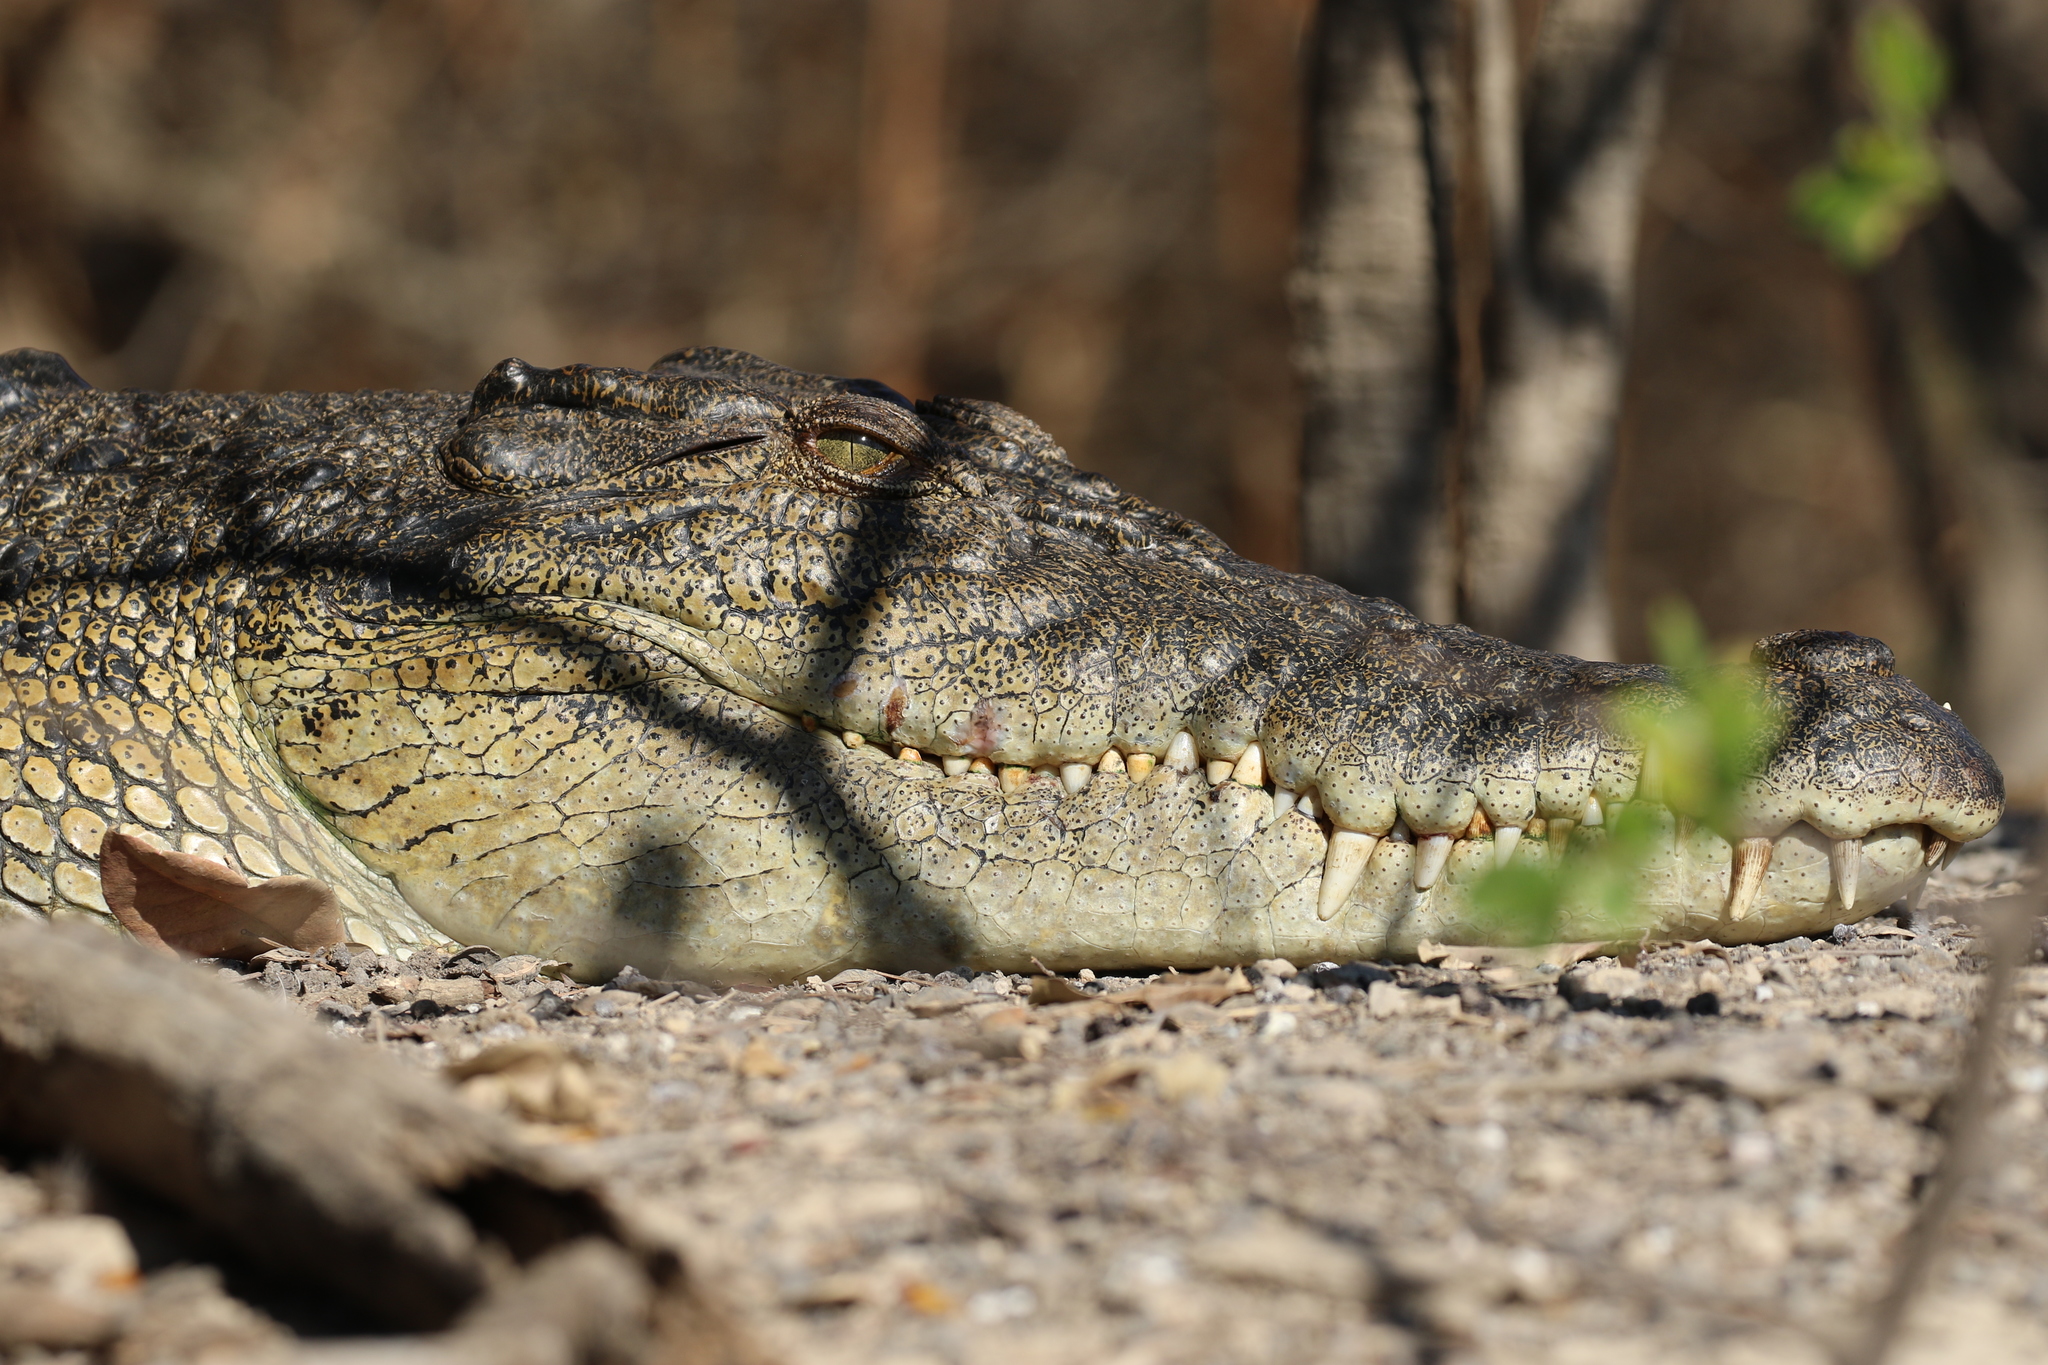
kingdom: Animalia
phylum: Chordata
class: Crocodylia
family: Crocodylidae
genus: Crocodylus
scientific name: Crocodylus porosus
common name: Saltwater crocodile
